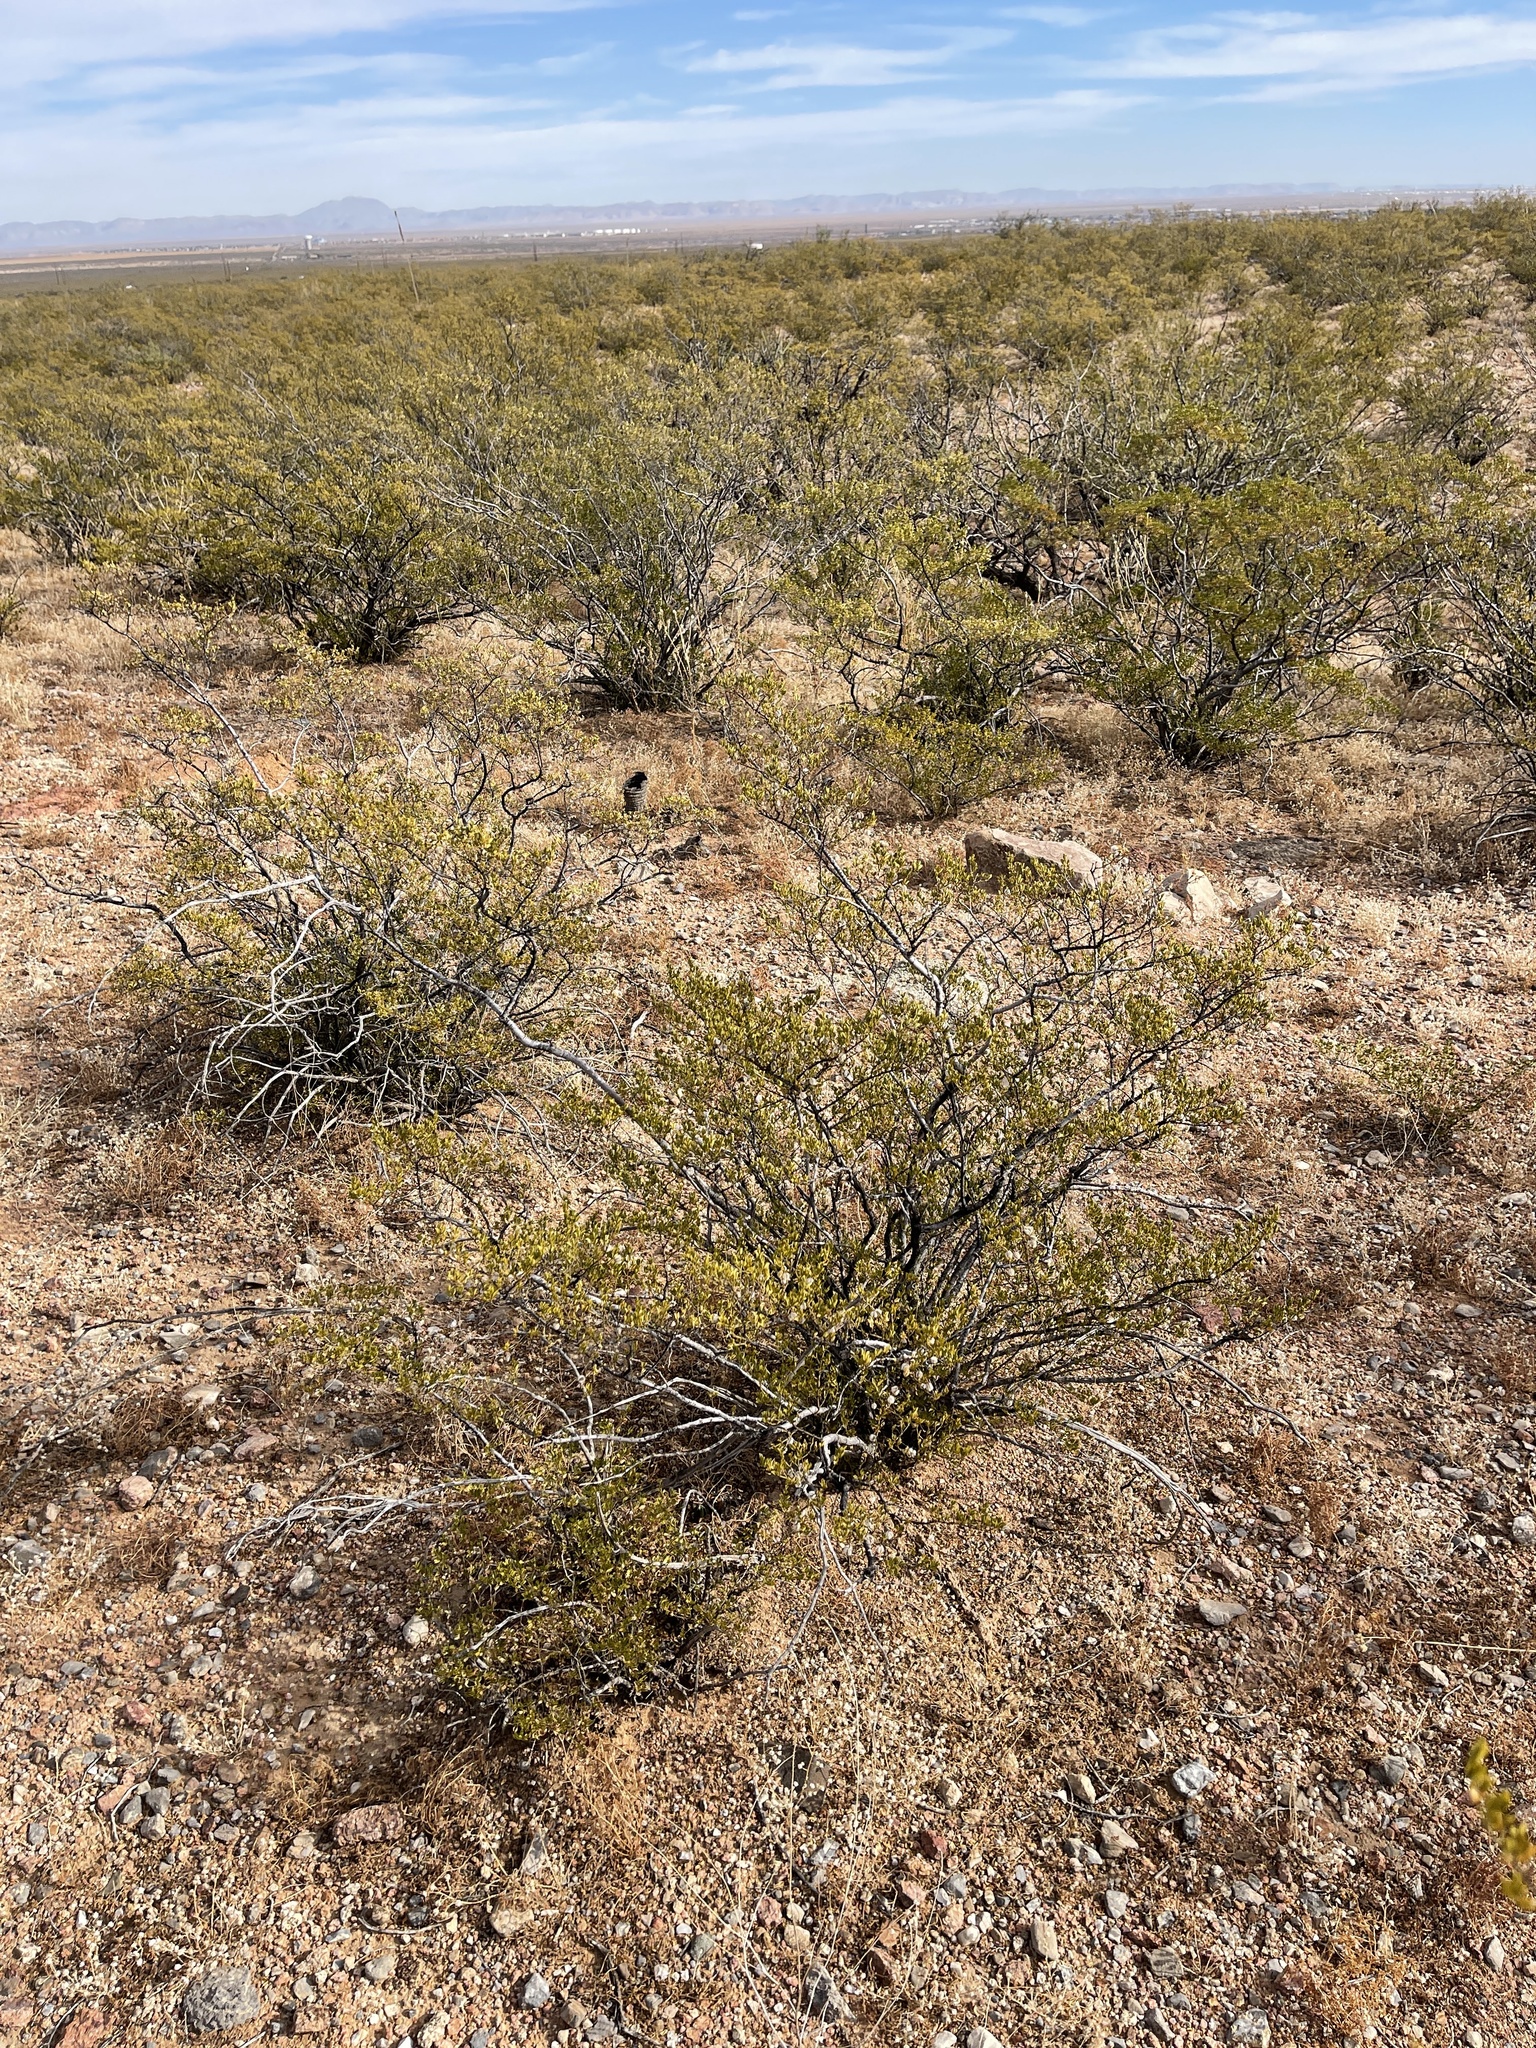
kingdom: Plantae
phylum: Tracheophyta
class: Magnoliopsida
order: Zygophyllales
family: Zygophyllaceae
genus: Larrea
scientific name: Larrea tridentata
